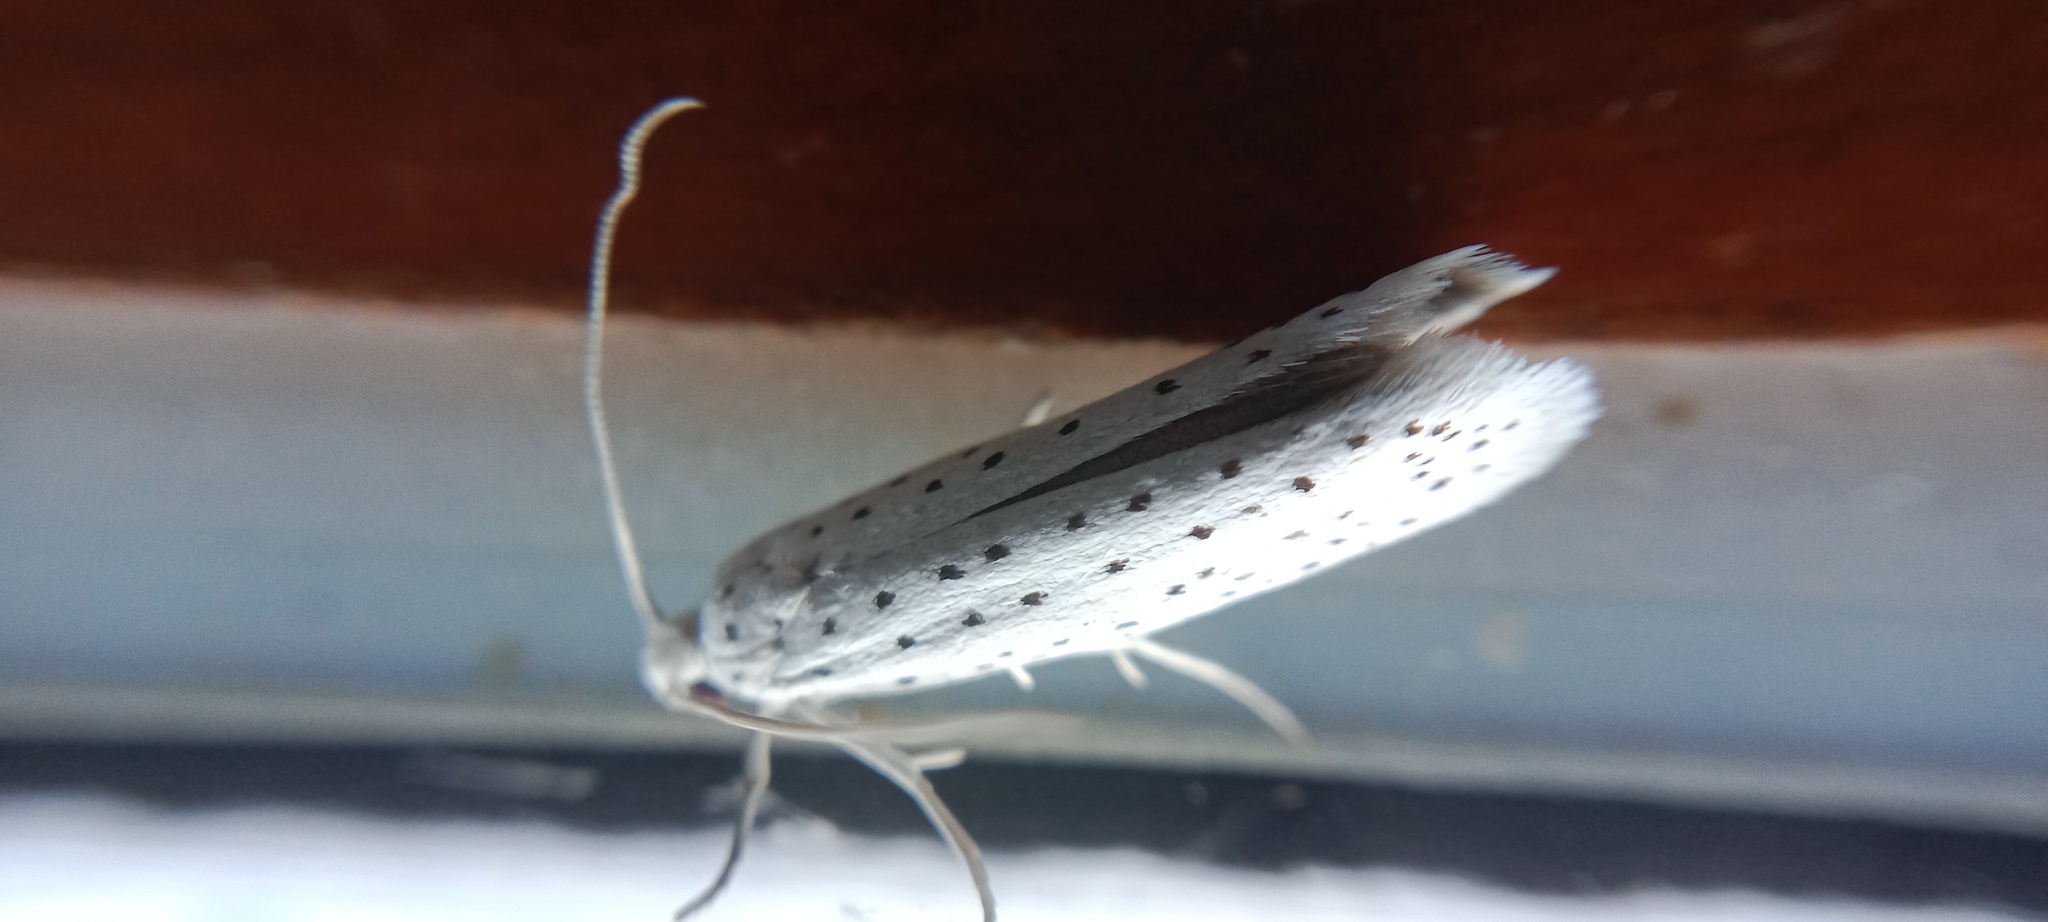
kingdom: Animalia
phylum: Arthropoda
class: Insecta
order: Lepidoptera
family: Yponomeutidae
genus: Yponomeuta
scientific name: Yponomeuta evonymella
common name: Bird-cherry ermine
